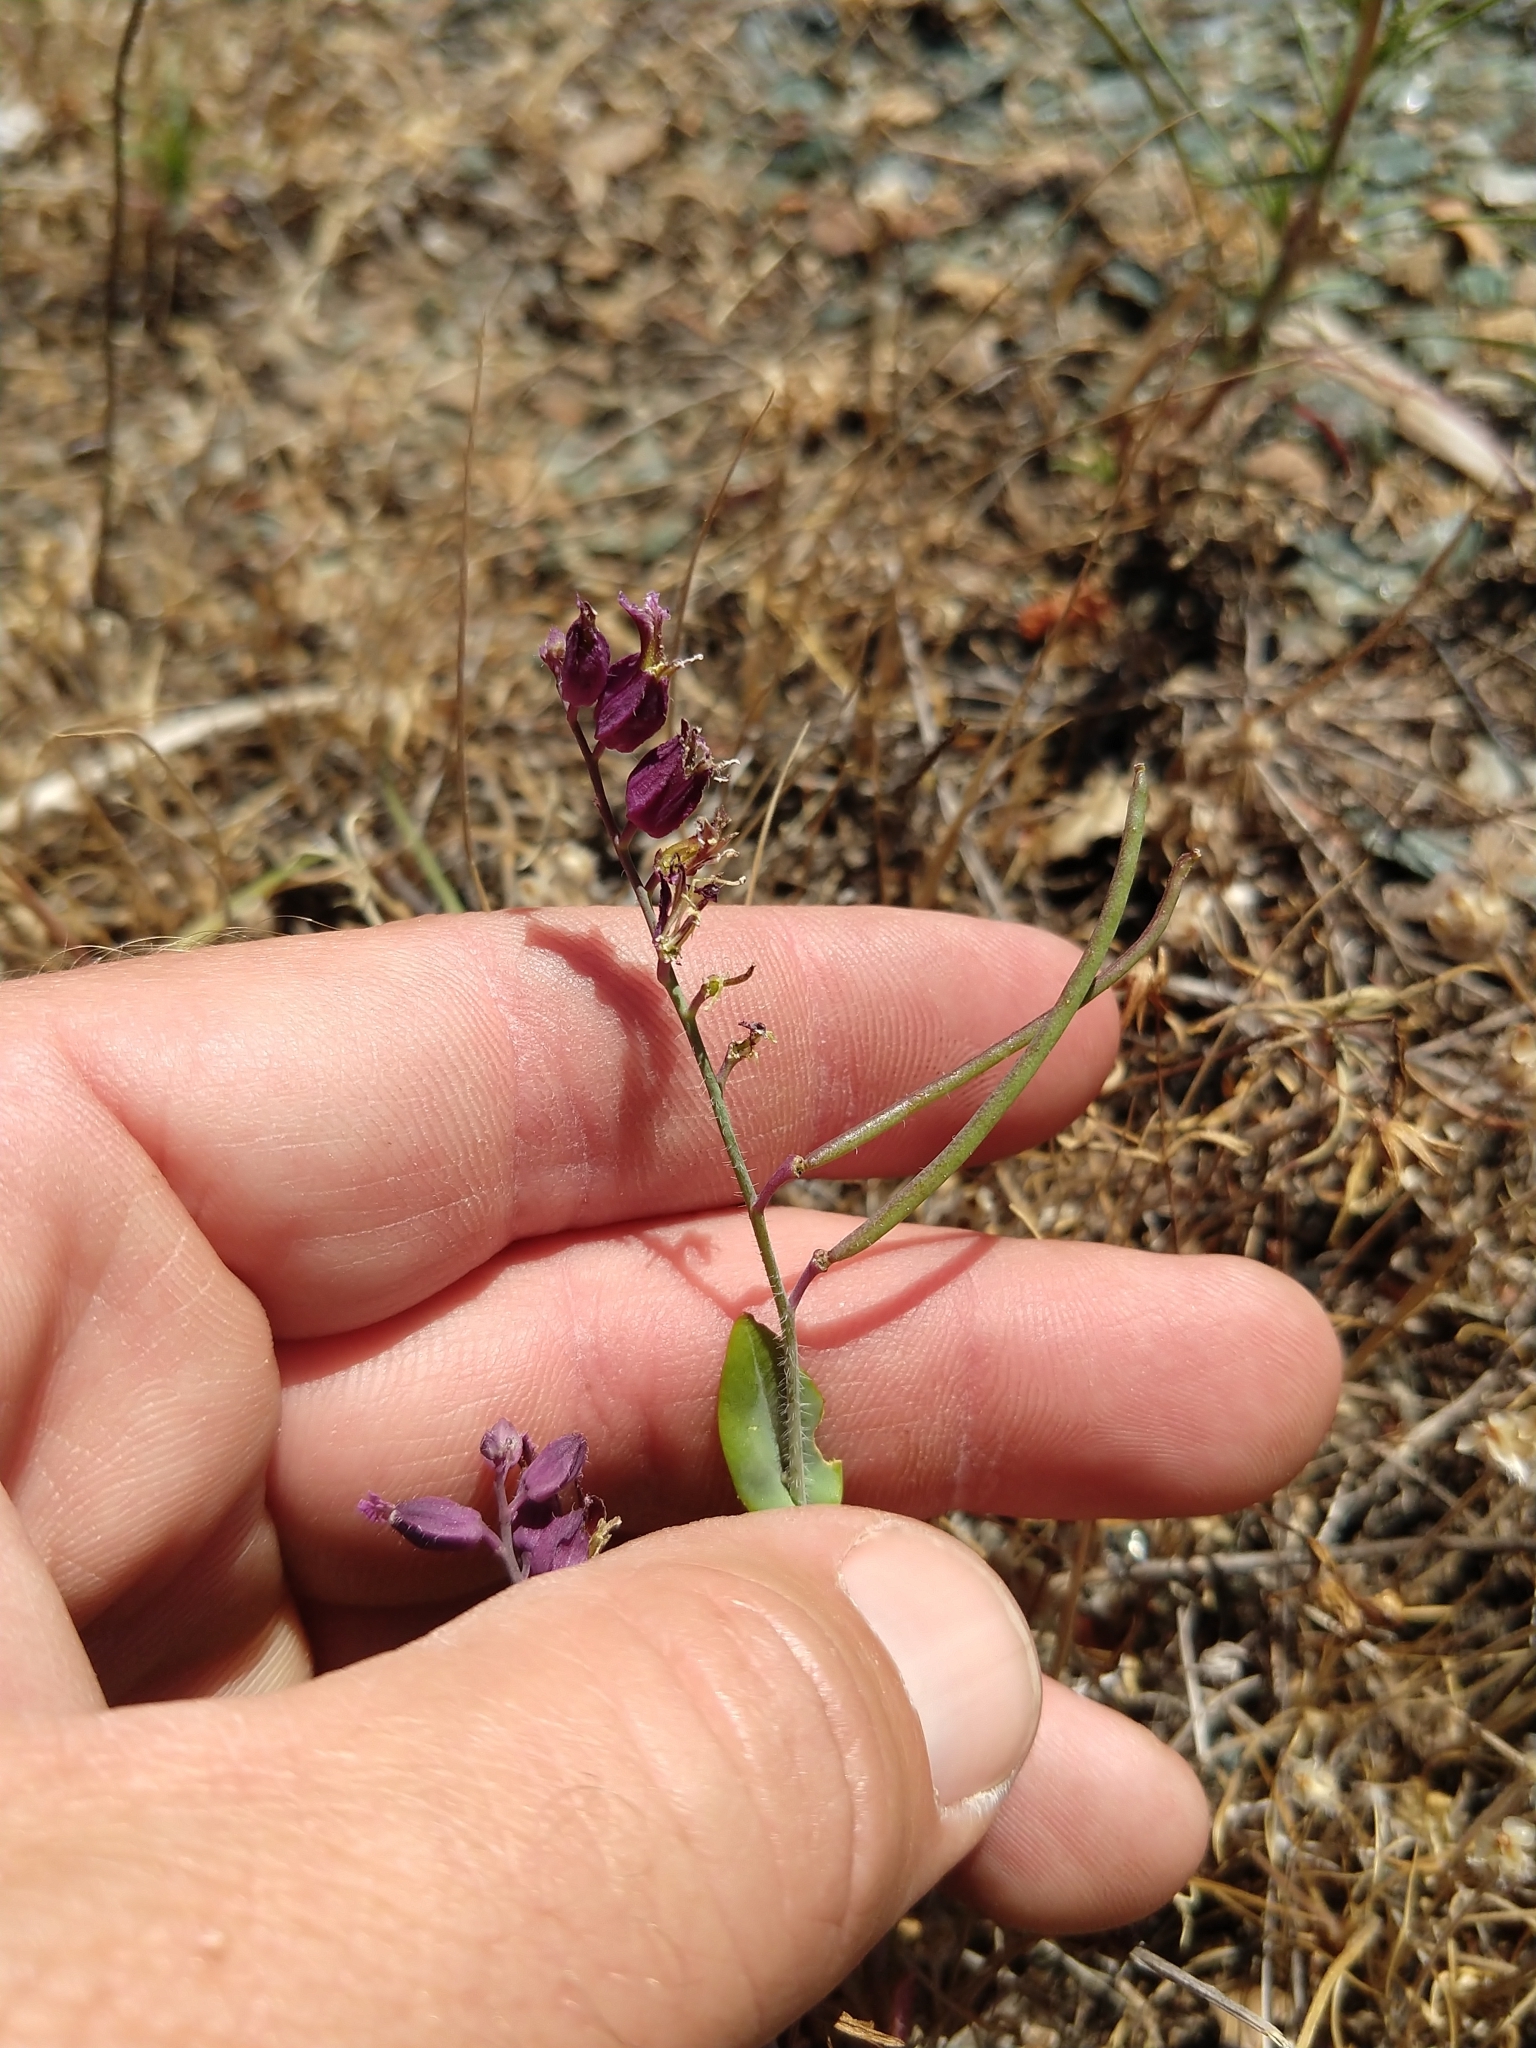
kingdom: Plantae
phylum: Tracheophyta
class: Magnoliopsida
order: Brassicales
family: Brassicaceae
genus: Streptanthus
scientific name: Streptanthus glandulosus
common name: Jewel-flower
